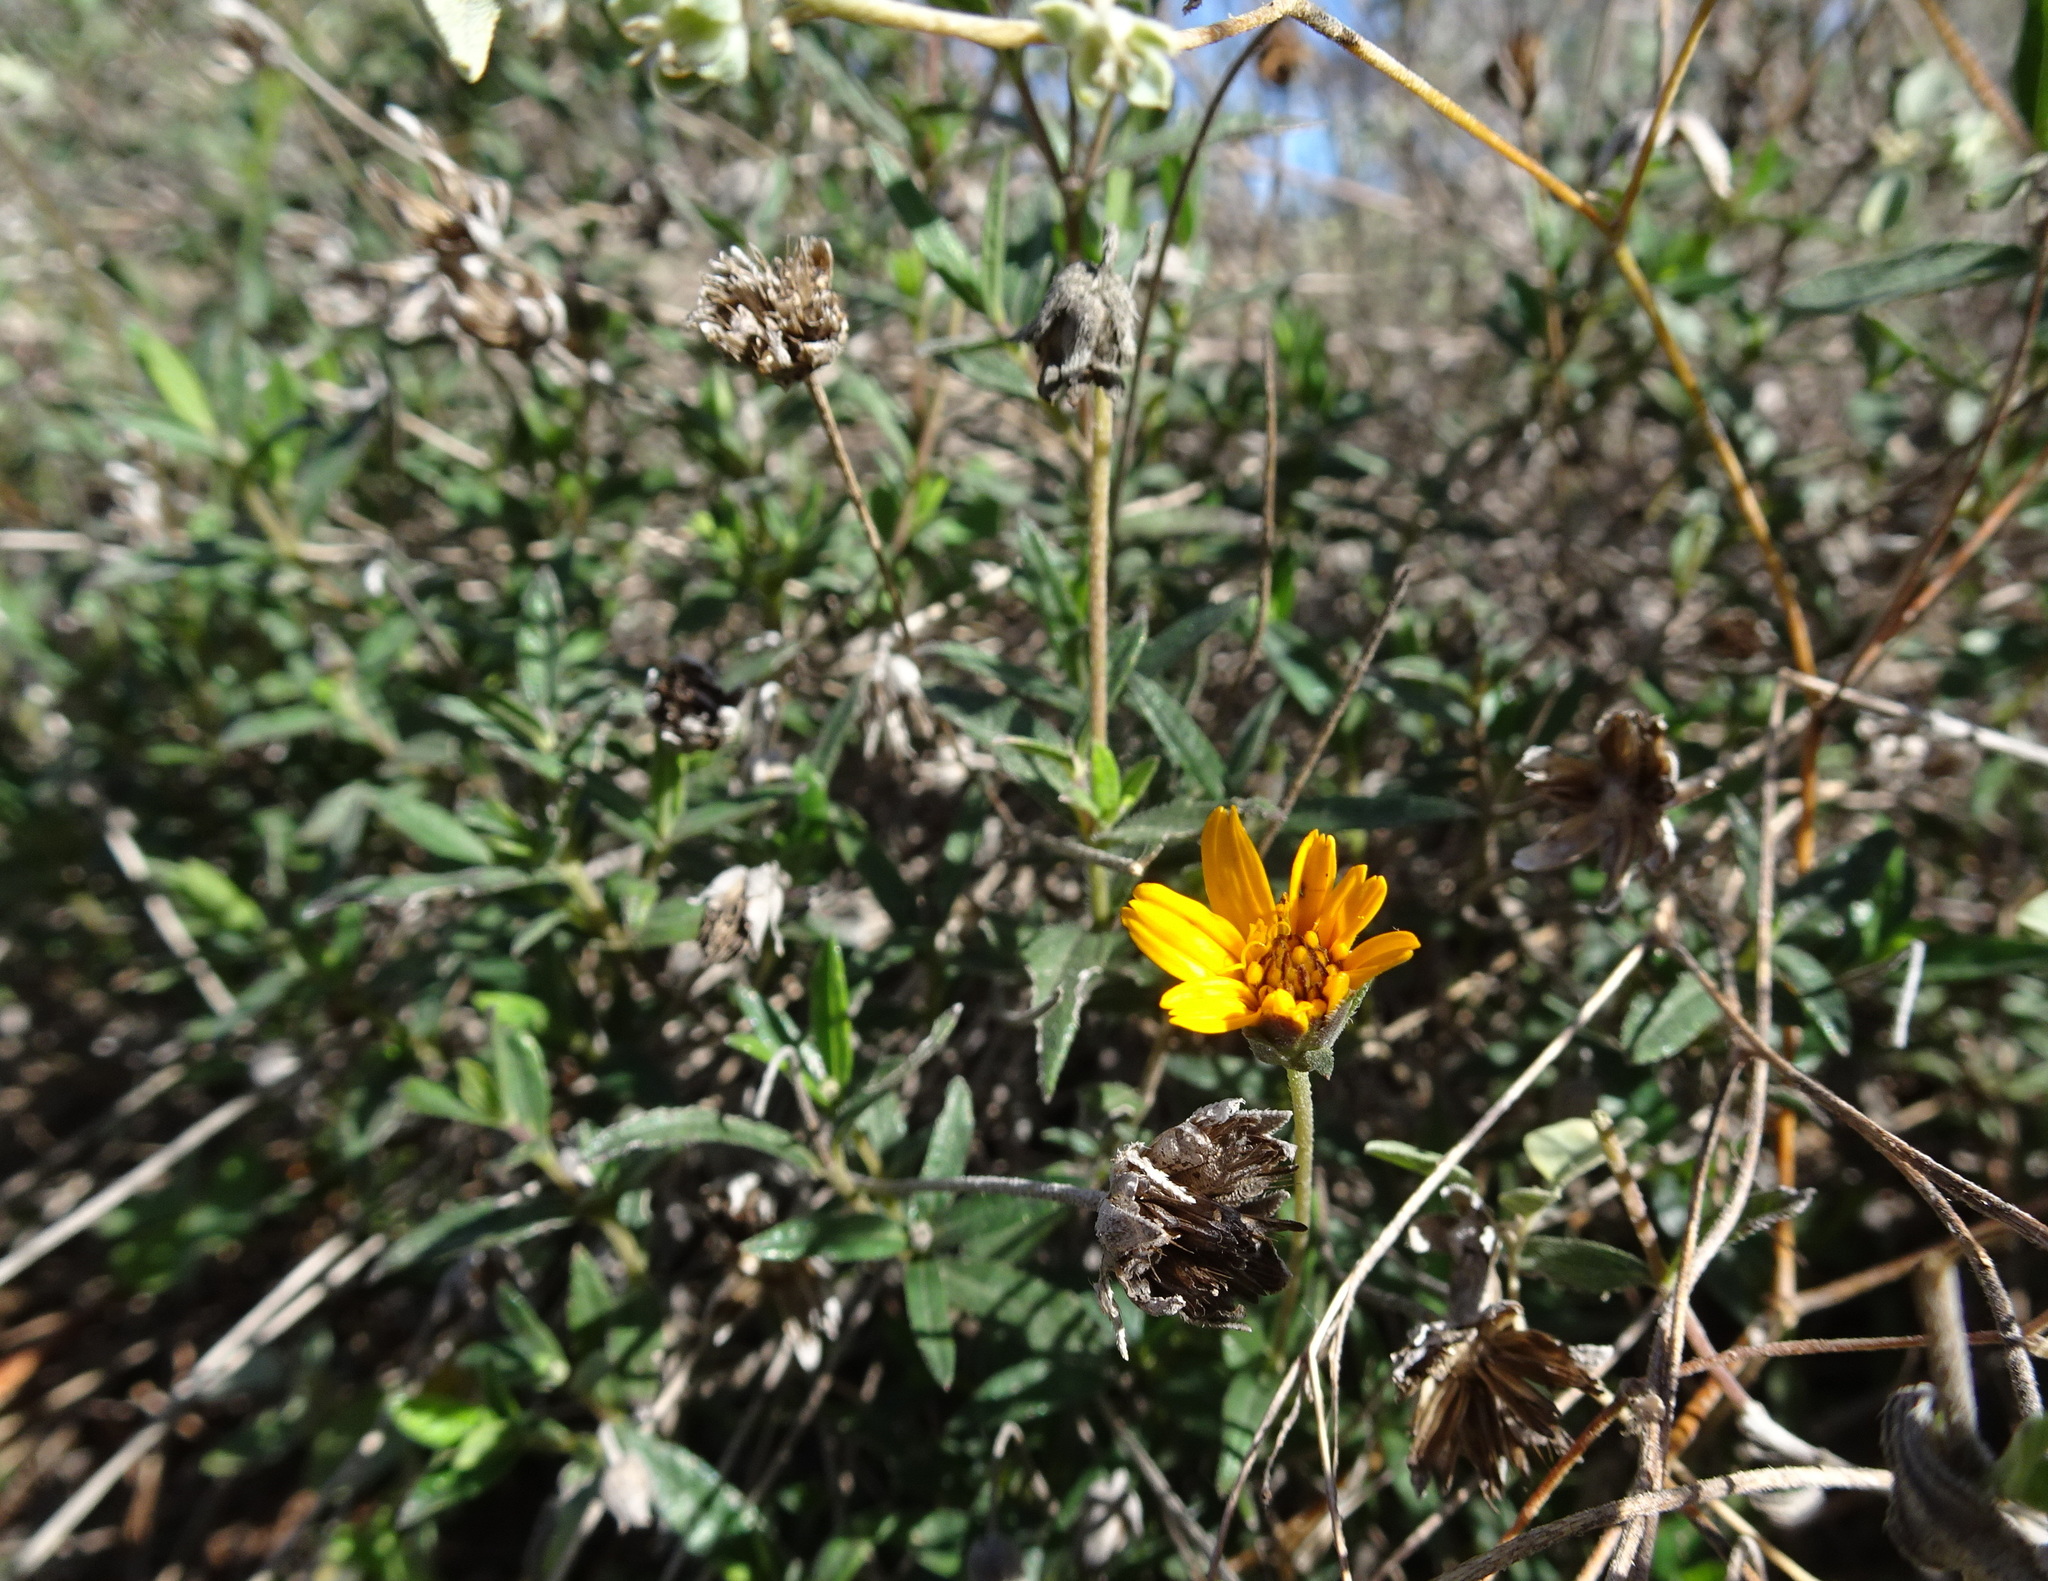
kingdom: Plantae
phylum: Tracheophyta
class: Magnoliopsida
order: Asterales
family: Asteraceae
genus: Wedelia
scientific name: Wedelia acapulcensis
